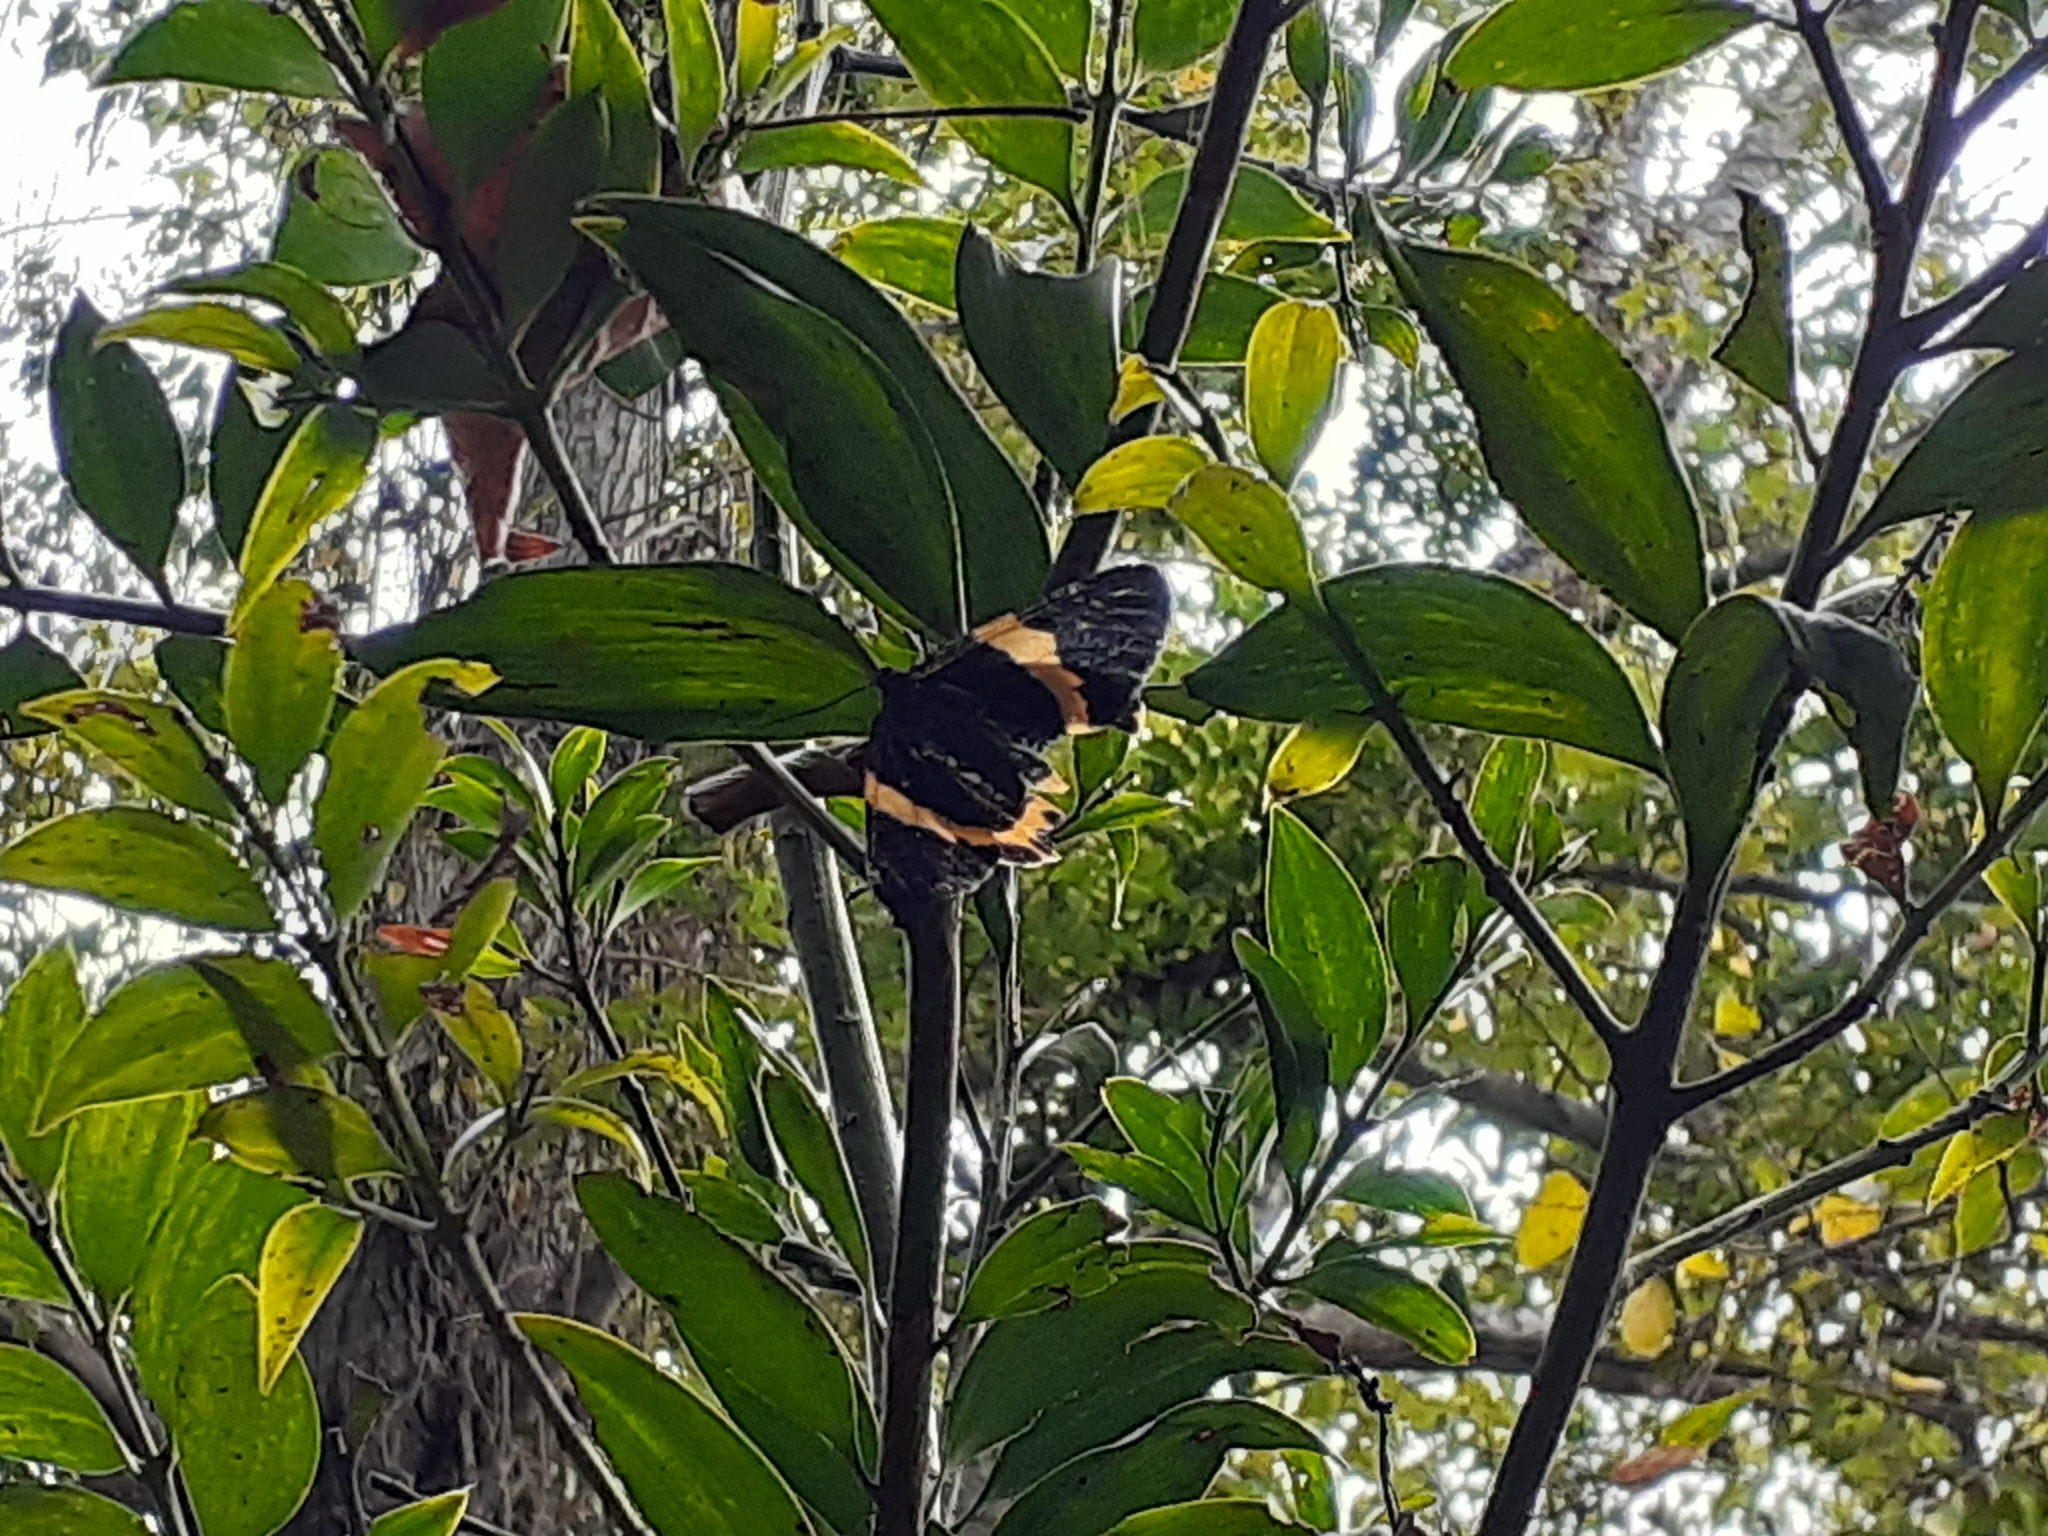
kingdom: Animalia
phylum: Arthropoda
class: Insecta
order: Lepidoptera
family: Geometridae
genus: Milionia
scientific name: Milionia basalis
